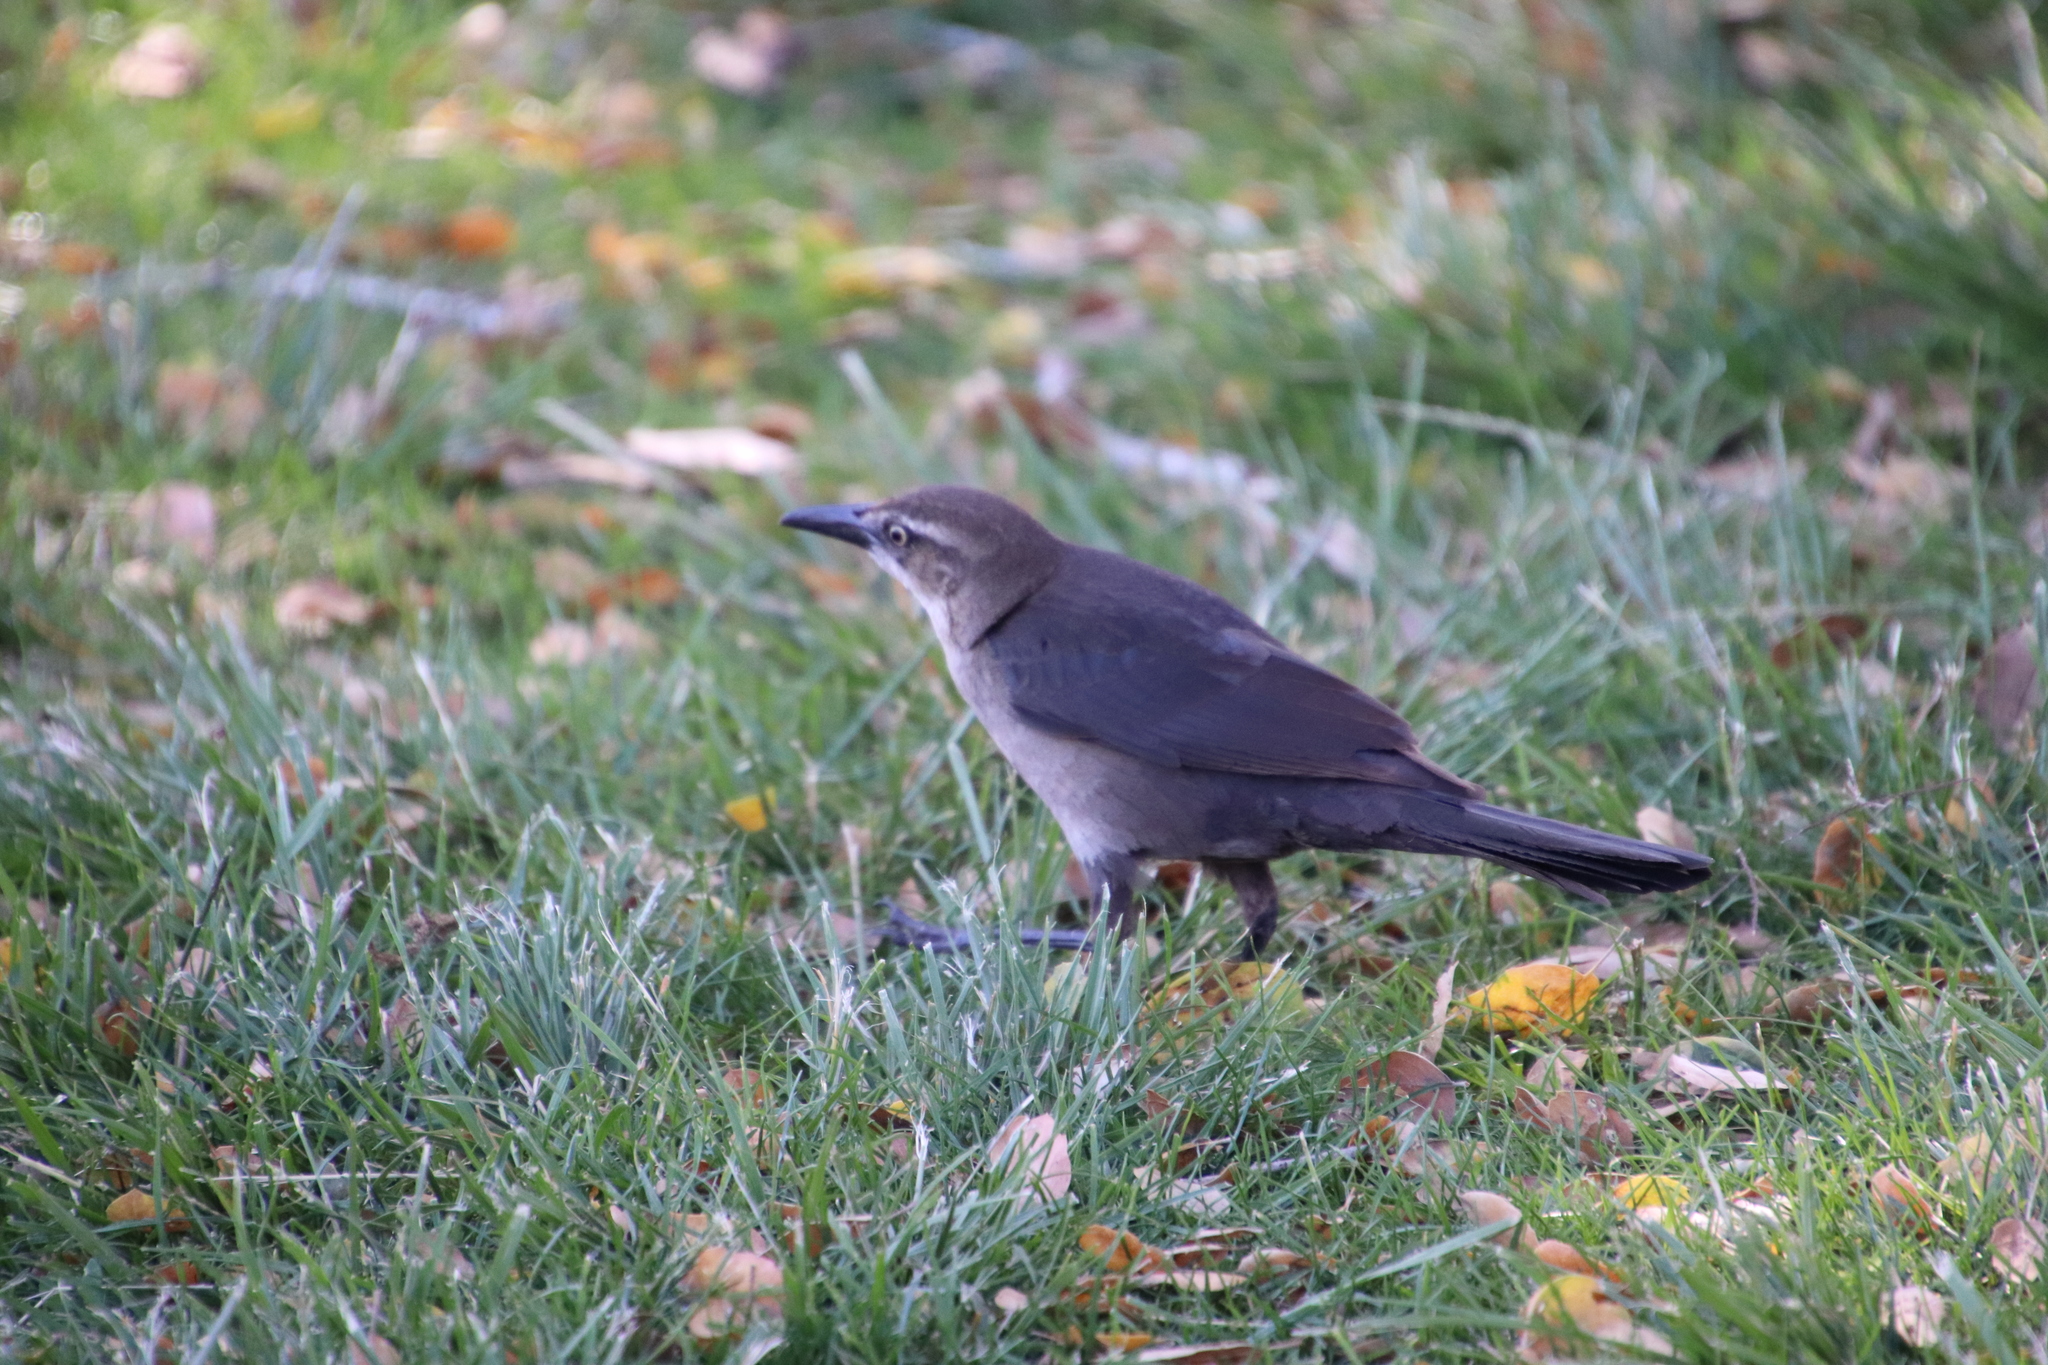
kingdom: Animalia
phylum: Chordata
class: Aves
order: Passeriformes
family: Icteridae
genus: Quiscalus
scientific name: Quiscalus mexicanus
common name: Great-tailed grackle
